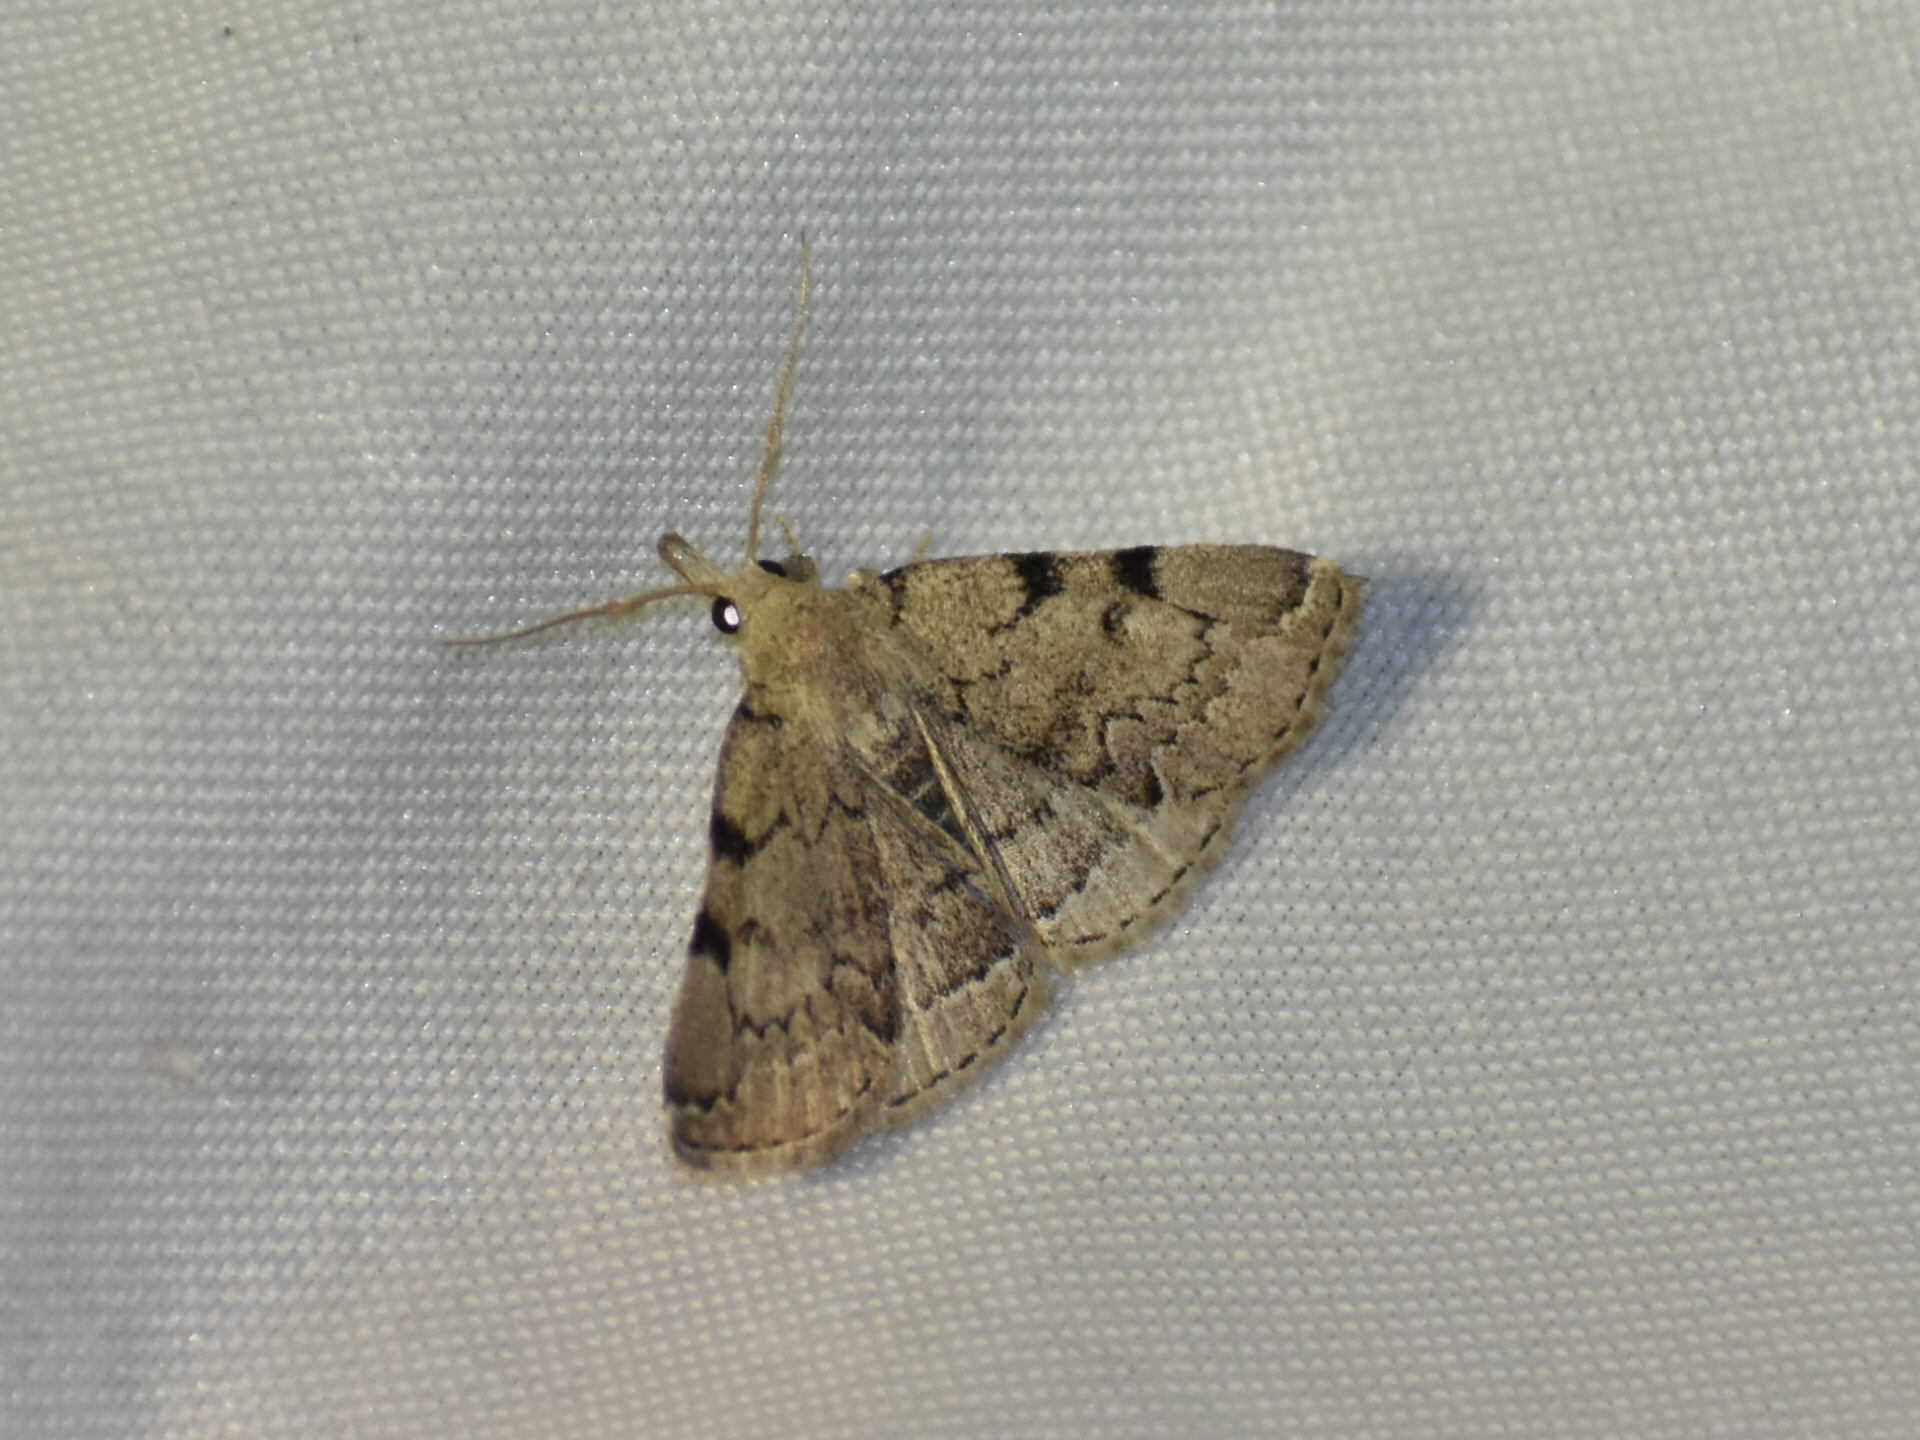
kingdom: Animalia
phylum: Arthropoda
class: Insecta
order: Lepidoptera
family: Erebidae
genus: Zanclognatha
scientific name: Zanclognatha theralis
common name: Flagged fan-foot
